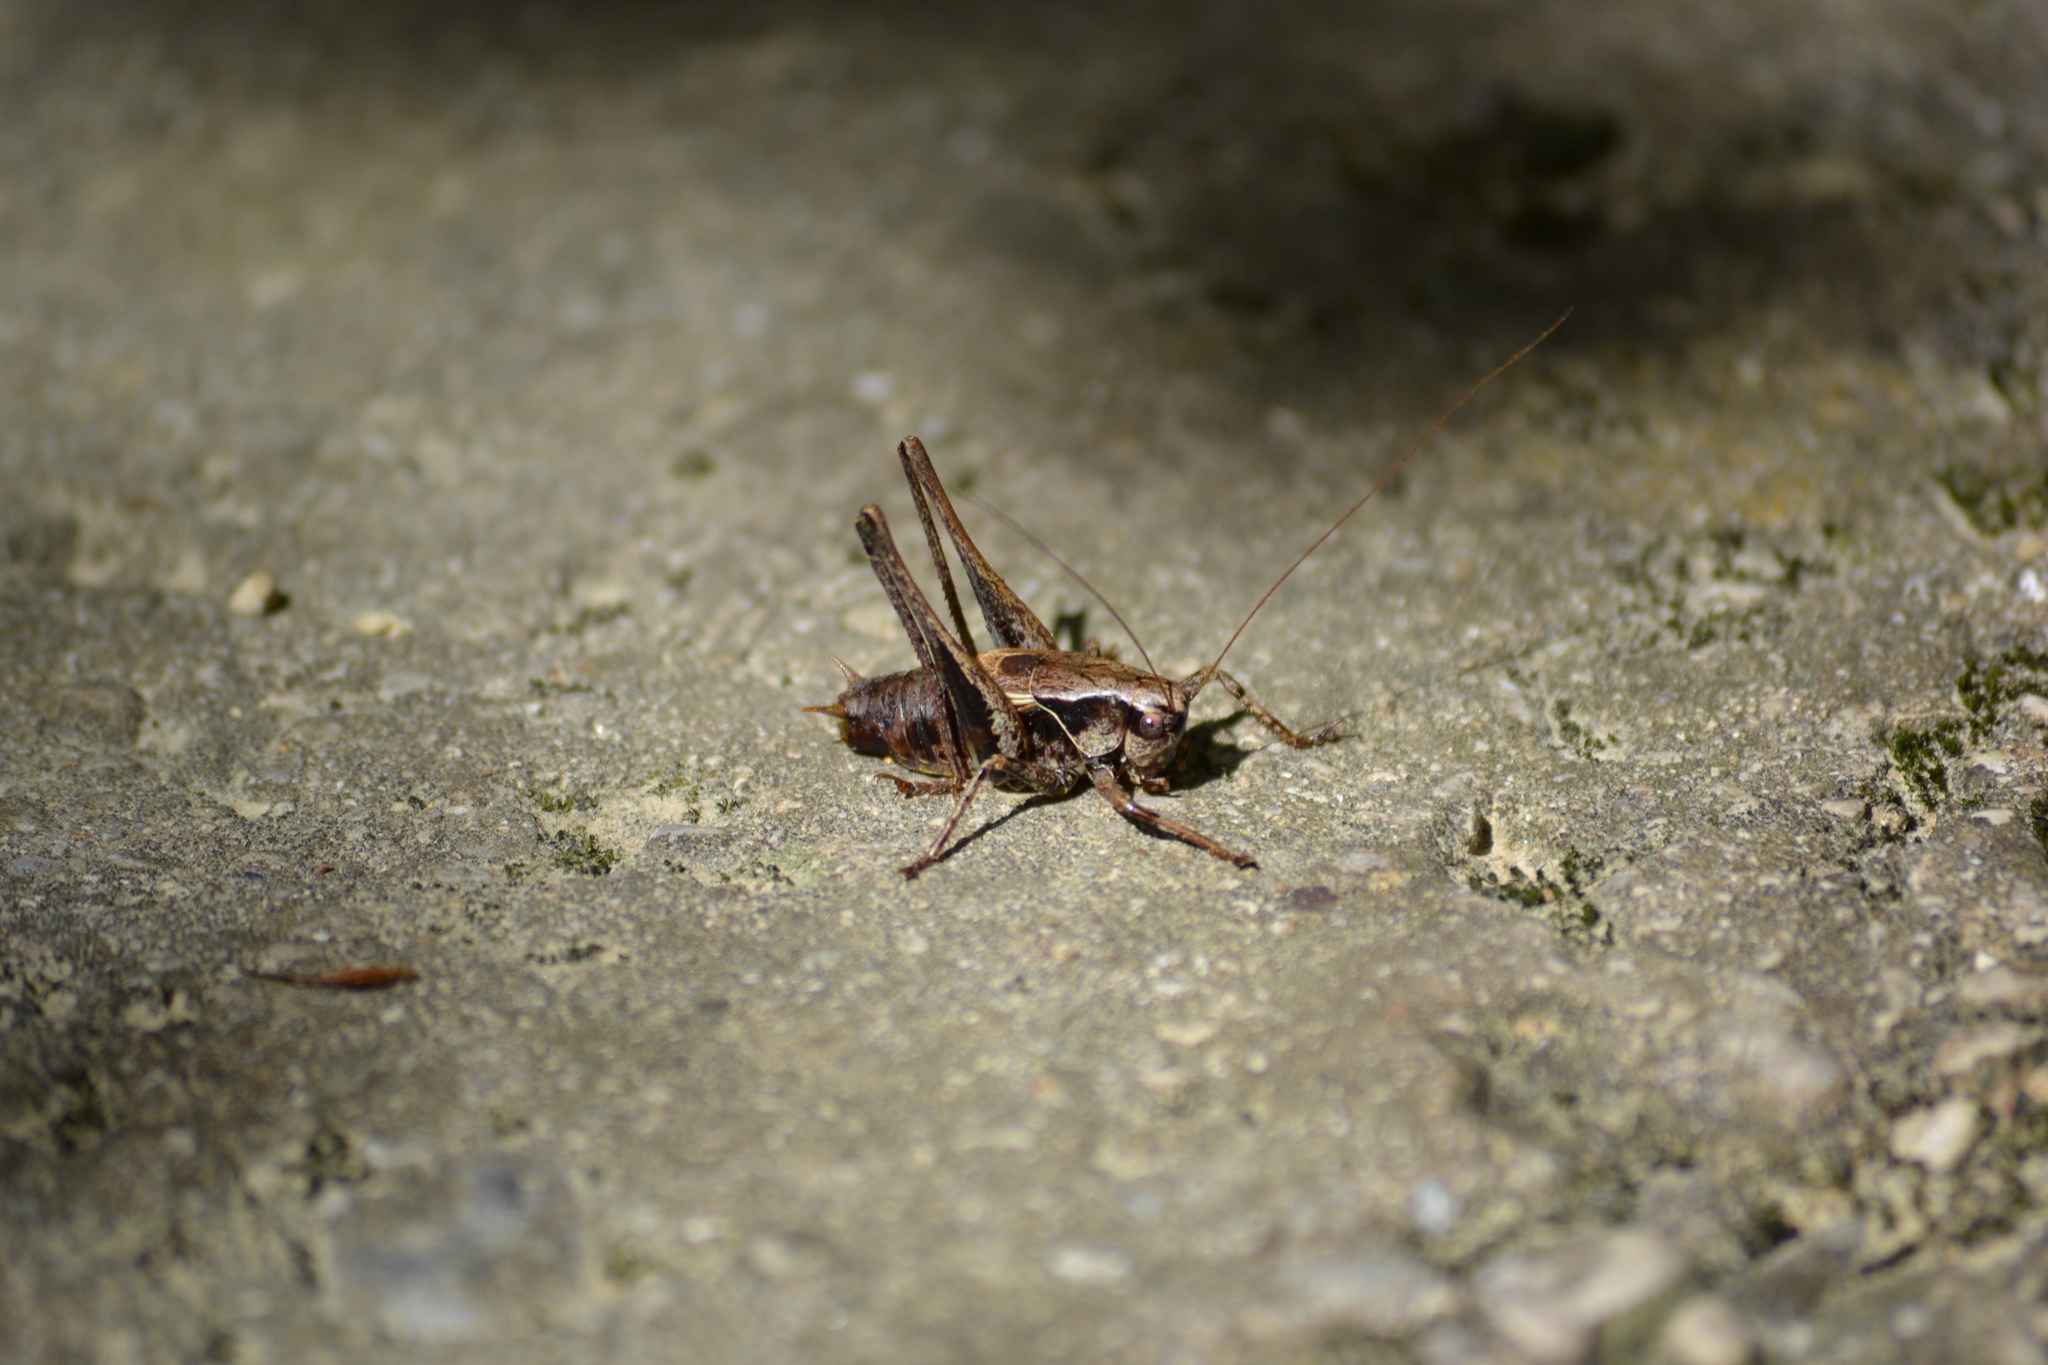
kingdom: Animalia
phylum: Arthropoda
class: Insecta
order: Orthoptera
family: Tettigoniidae
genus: Pholidoptera
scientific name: Pholidoptera griseoaptera
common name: Dark bush-cricket
